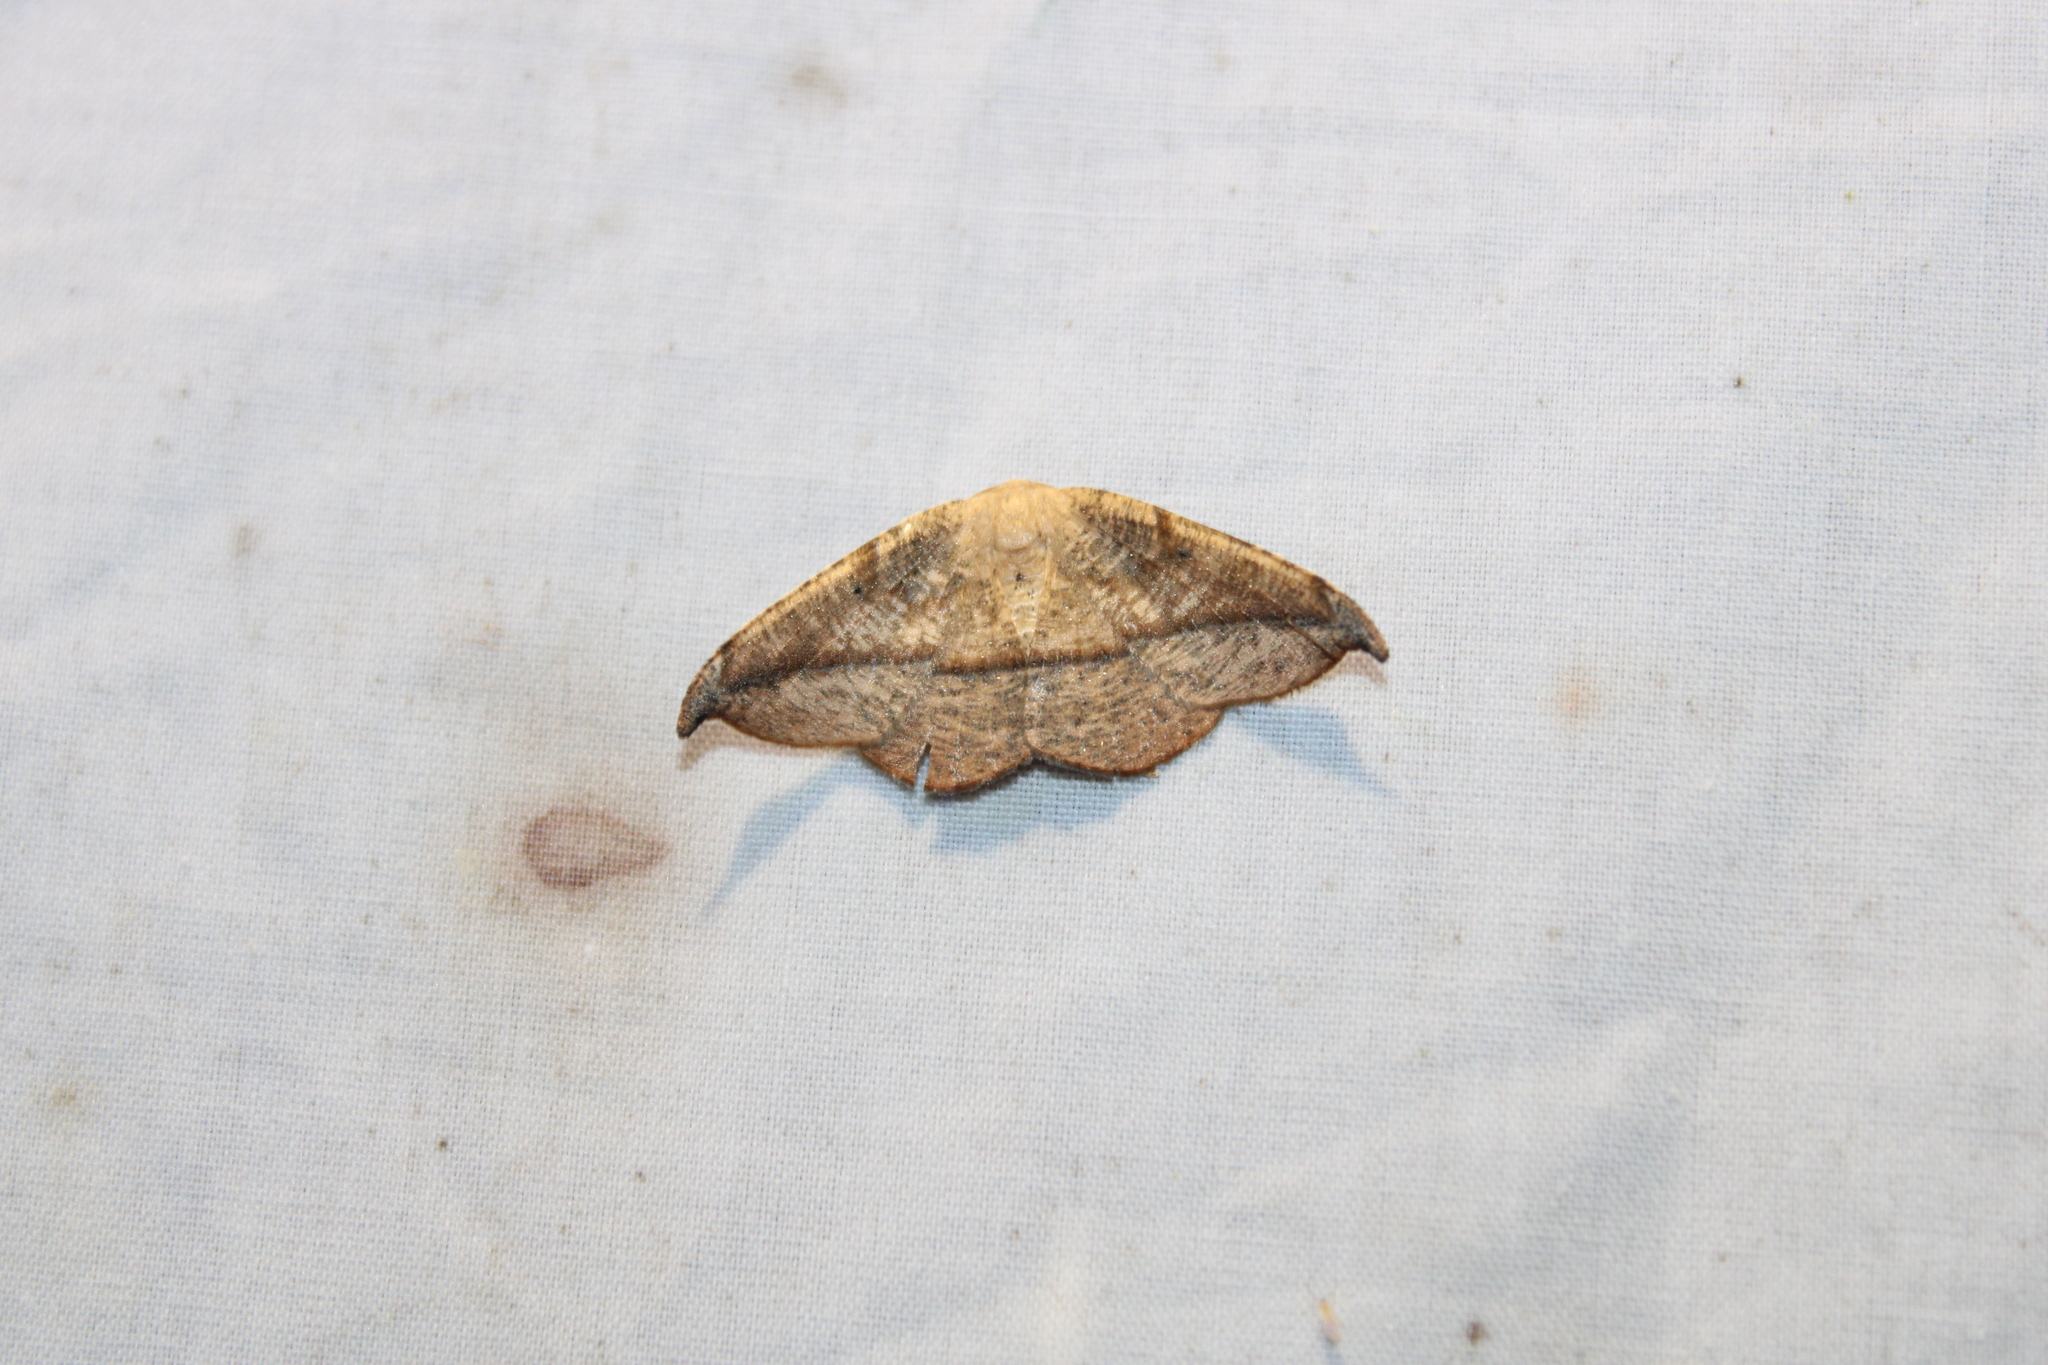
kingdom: Animalia
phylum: Arthropoda
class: Insecta
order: Lepidoptera
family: Geometridae
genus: Patalene
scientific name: Patalene olyzonaria
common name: Juniper geometer moth
